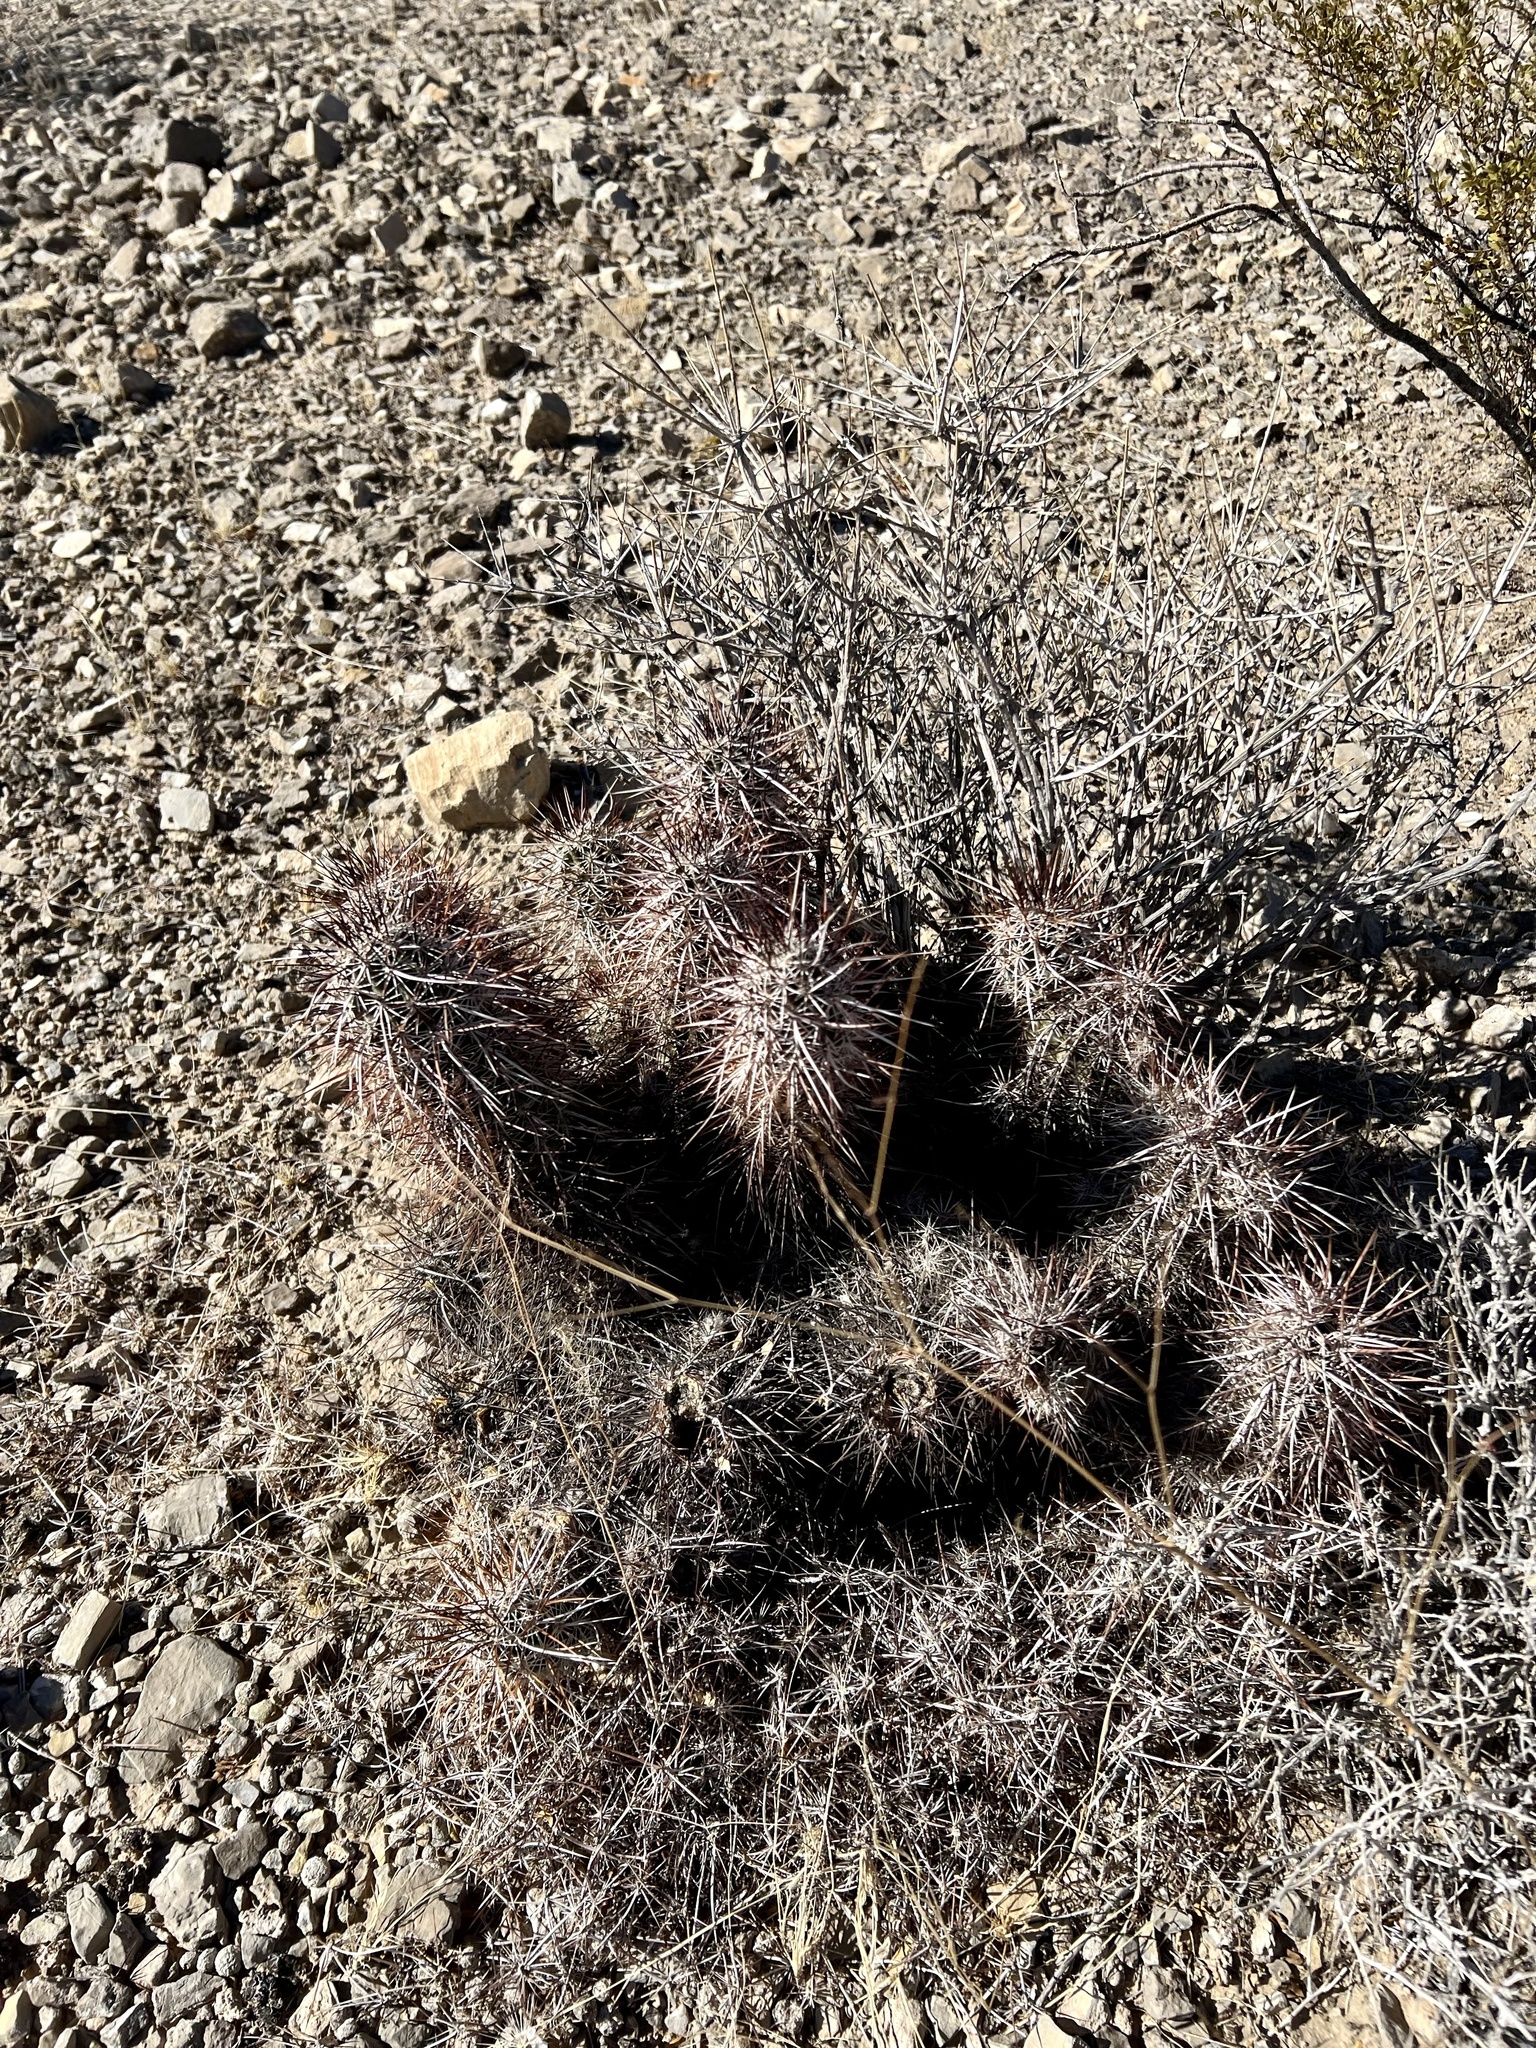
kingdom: Plantae
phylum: Tracheophyta
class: Magnoliopsida
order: Caryophyllales
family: Cactaceae
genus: Echinocereus
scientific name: Echinocereus engelmannii
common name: Engelmann's hedgehog cactus
